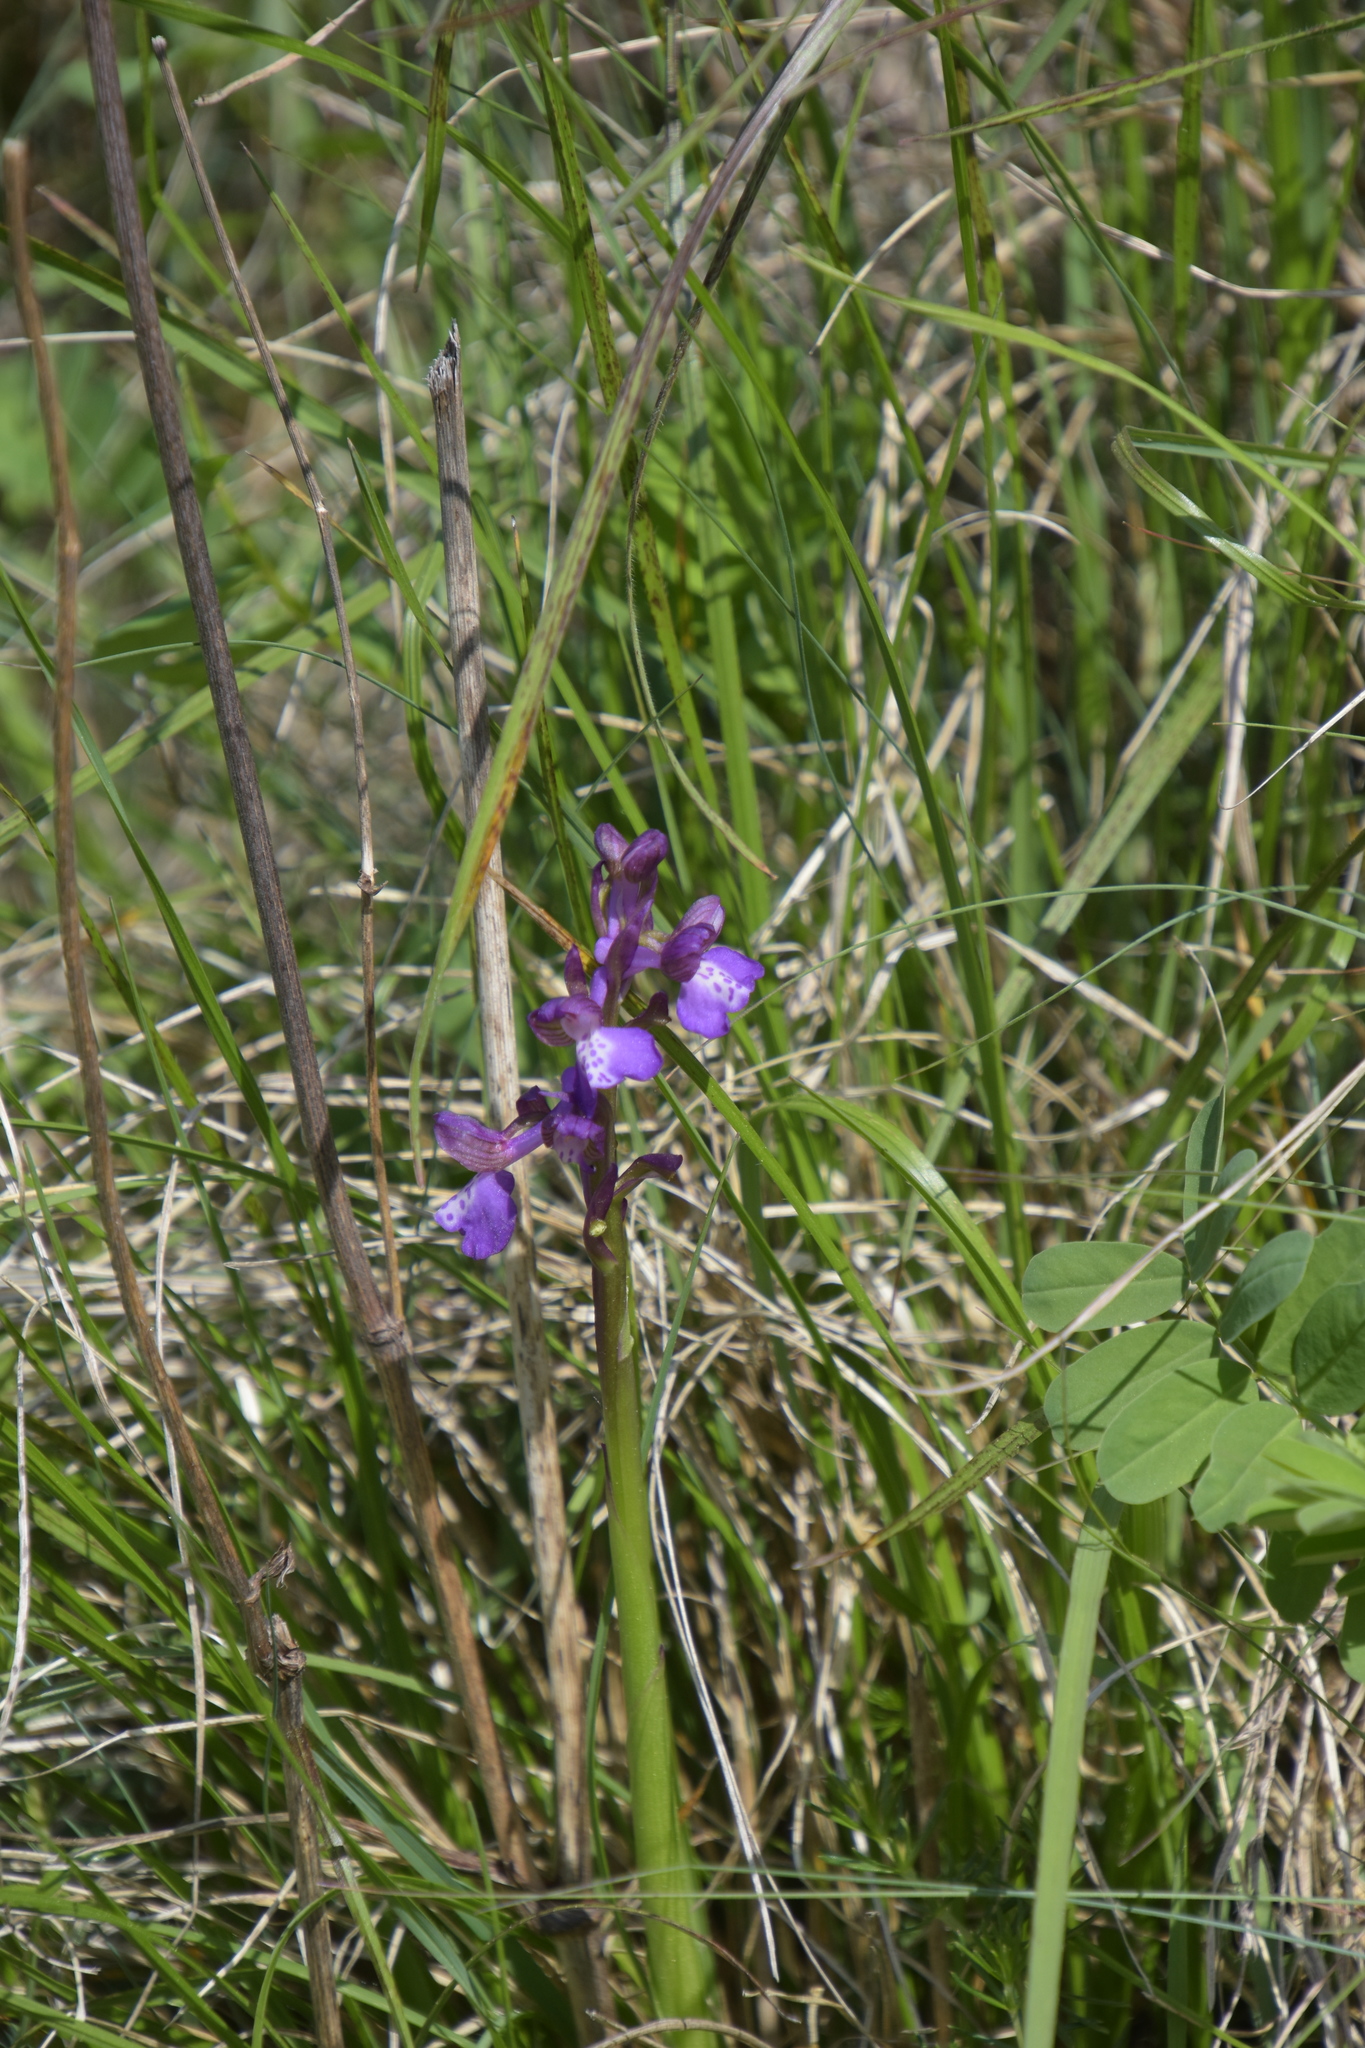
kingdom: Plantae
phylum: Tracheophyta
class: Liliopsida
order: Asparagales
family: Orchidaceae
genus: Anacamptis
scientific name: Anacamptis morio
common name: Green-winged orchid
